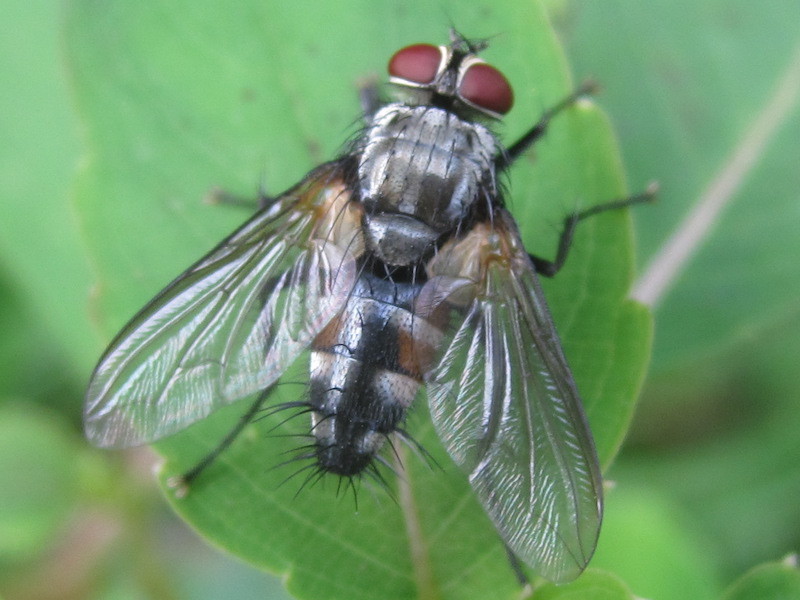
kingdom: Animalia
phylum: Arthropoda
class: Insecta
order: Diptera
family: Tachinidae
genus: Thelaira
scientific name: Thelaira americana
